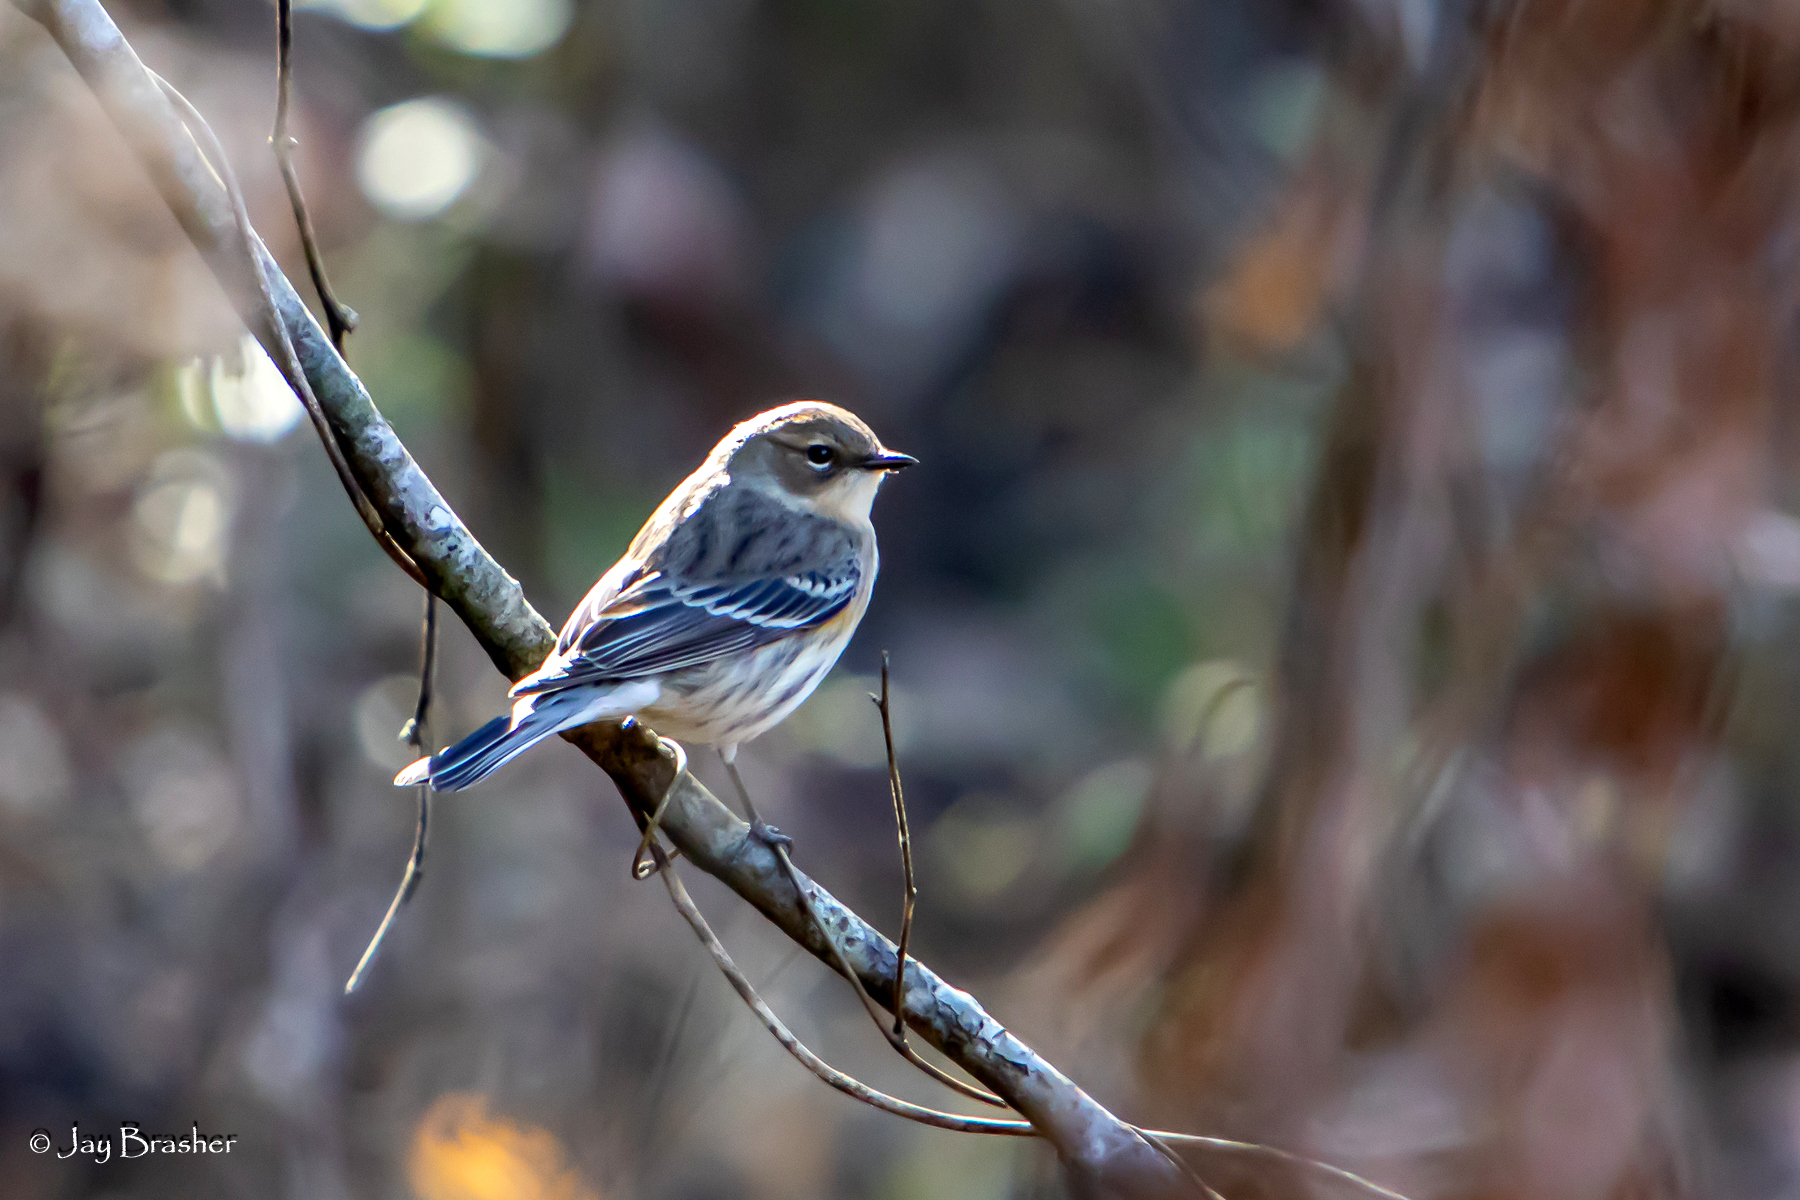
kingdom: Animalia
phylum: Chordata
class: Aves
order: Passeriformes
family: Parulidae
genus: Setophaga
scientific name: Setophaga coronata
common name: Myrtle warbler
